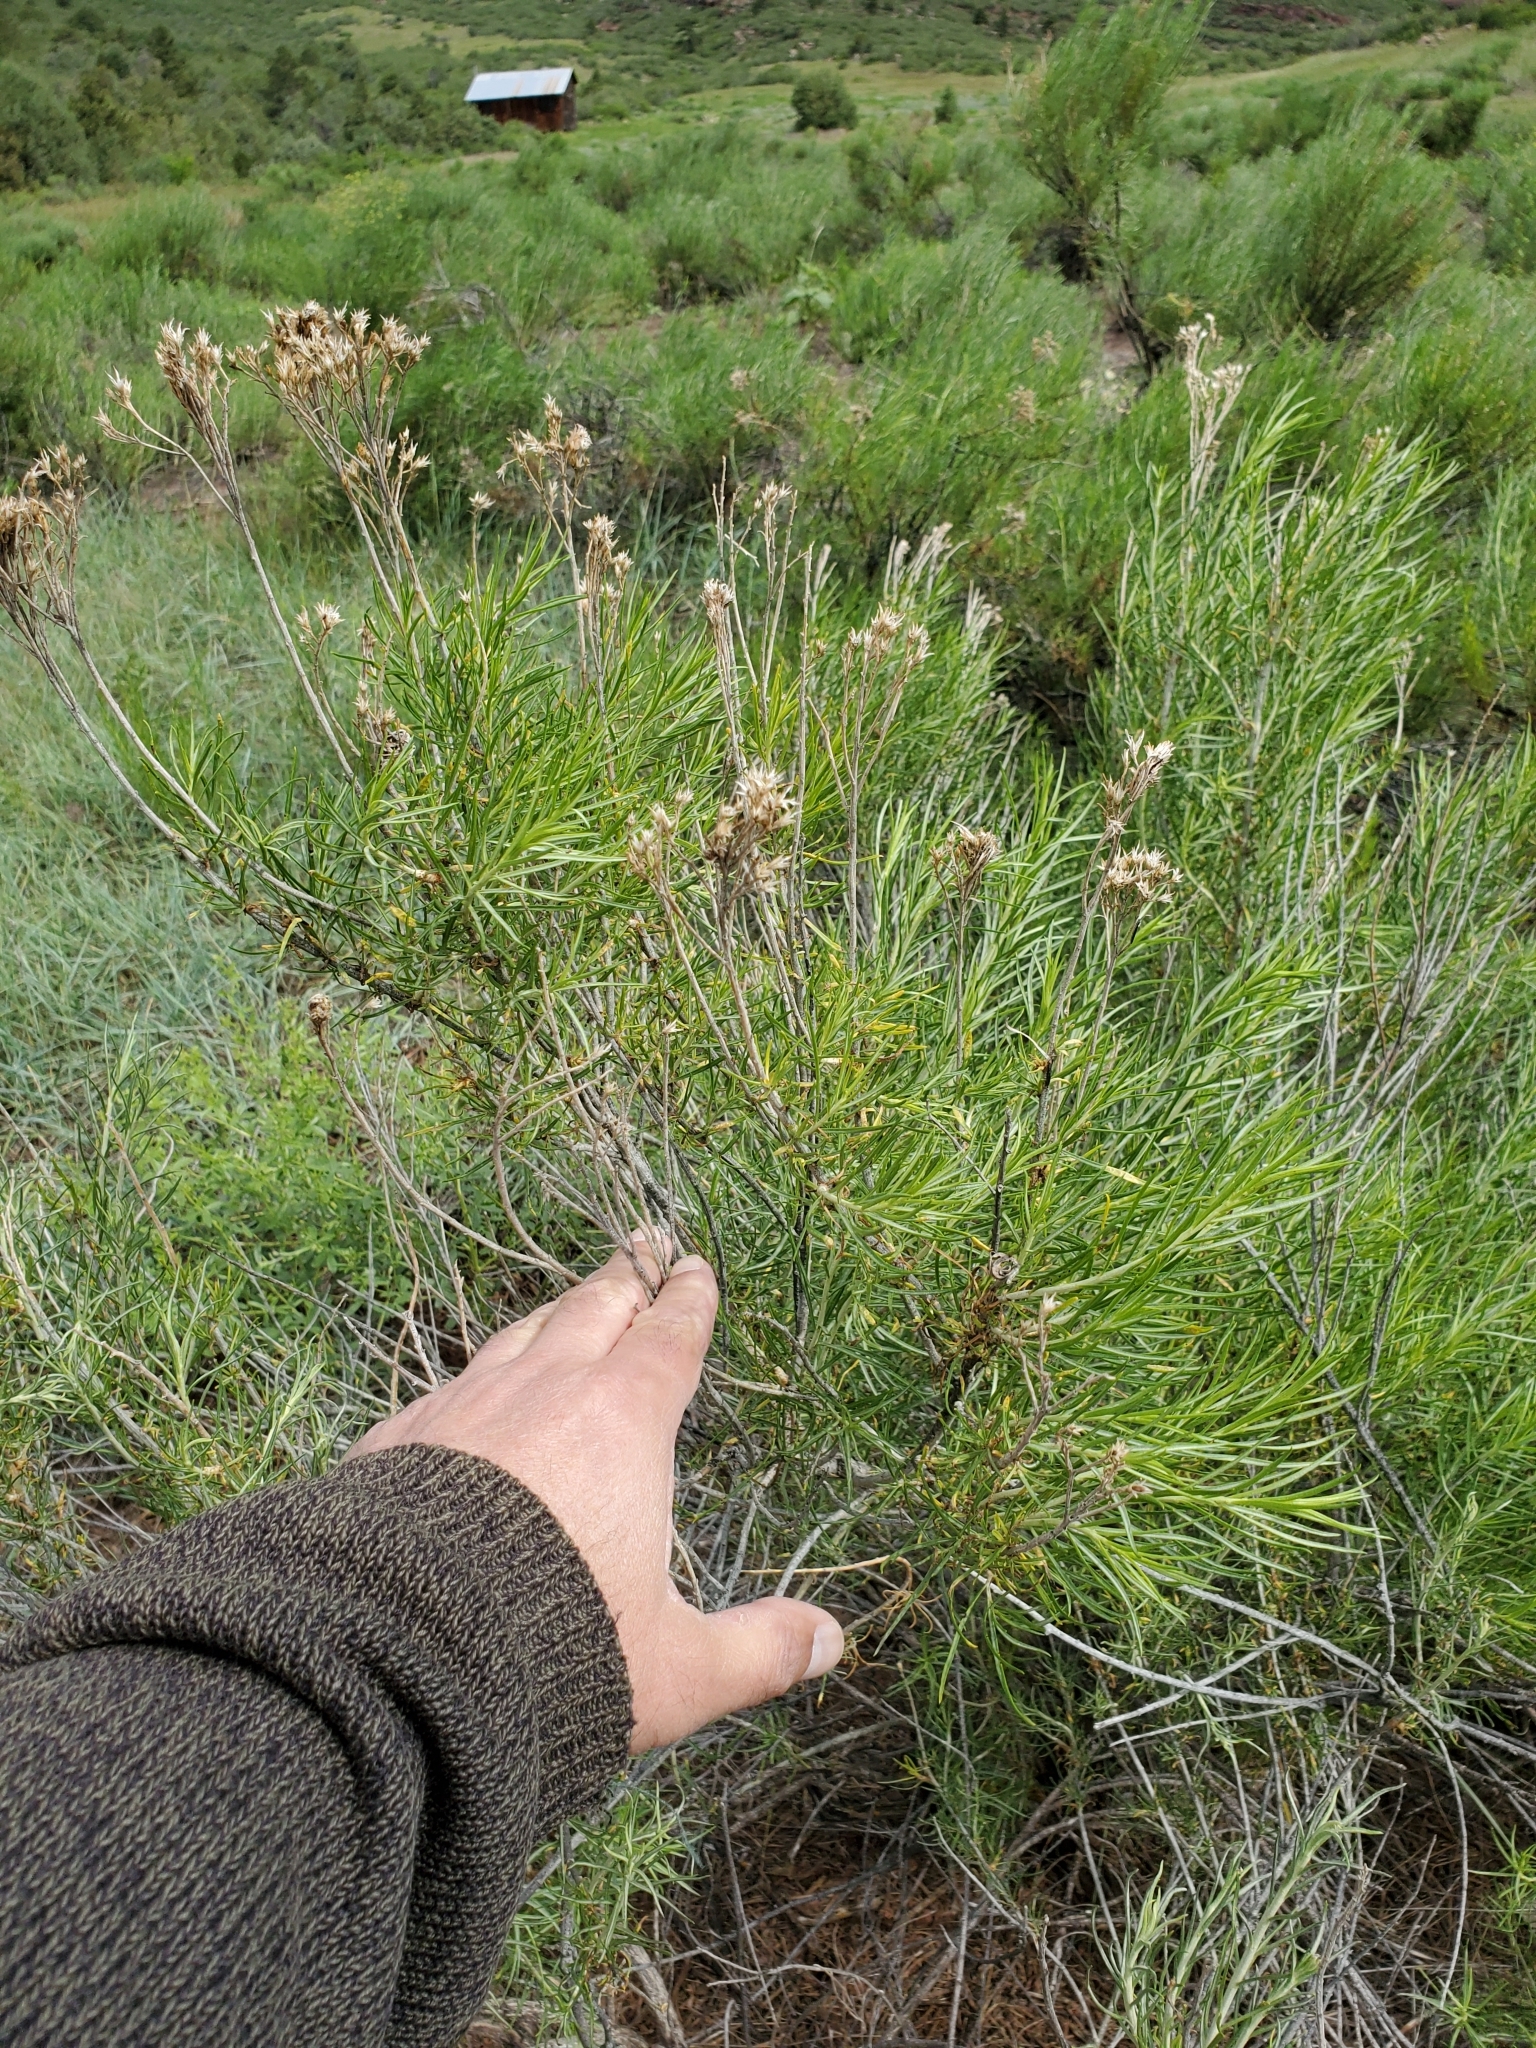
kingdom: Plantae
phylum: Tracheophyta
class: Magnoliopsida
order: Asterales
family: Asteraceae
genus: Ericameria
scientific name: Ericameria nauseosa
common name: Rubber rabbitbrush
